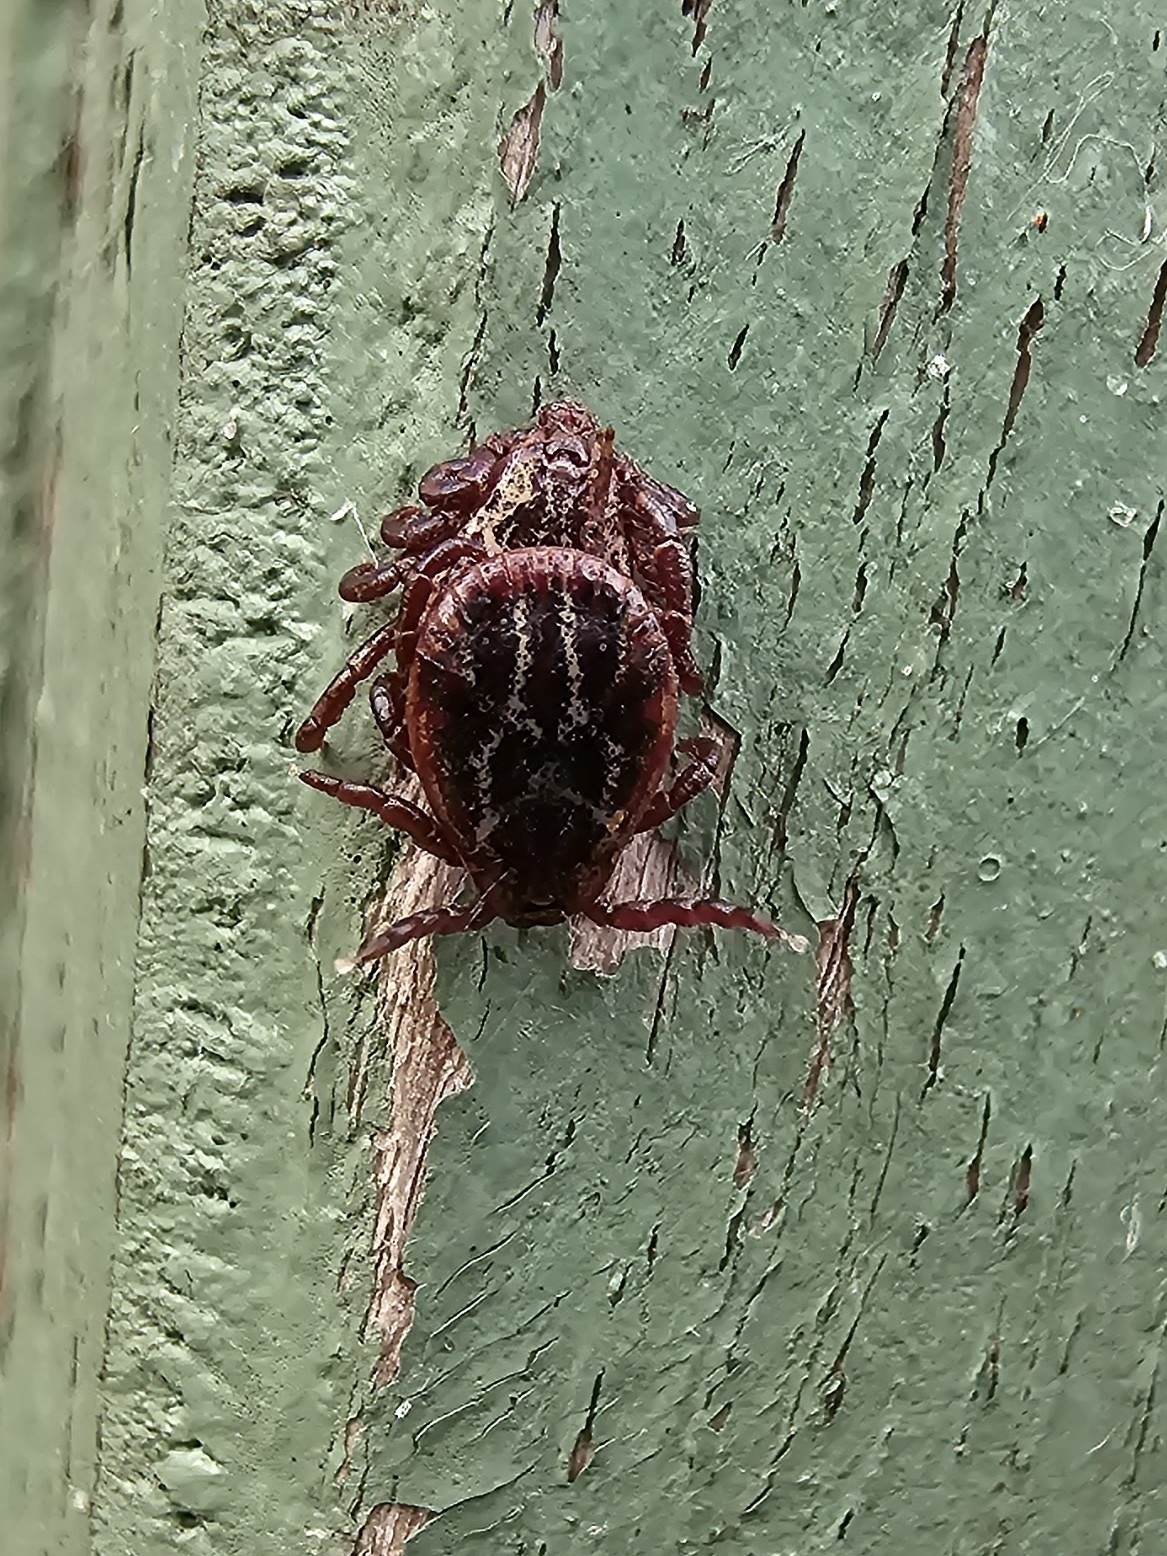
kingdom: Animalia
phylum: Arthropoda
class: Arachnida
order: Ixodida
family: Ixodidae
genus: Dermacentor
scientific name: Dermacentor reticulatus
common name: Ornate cow tick
